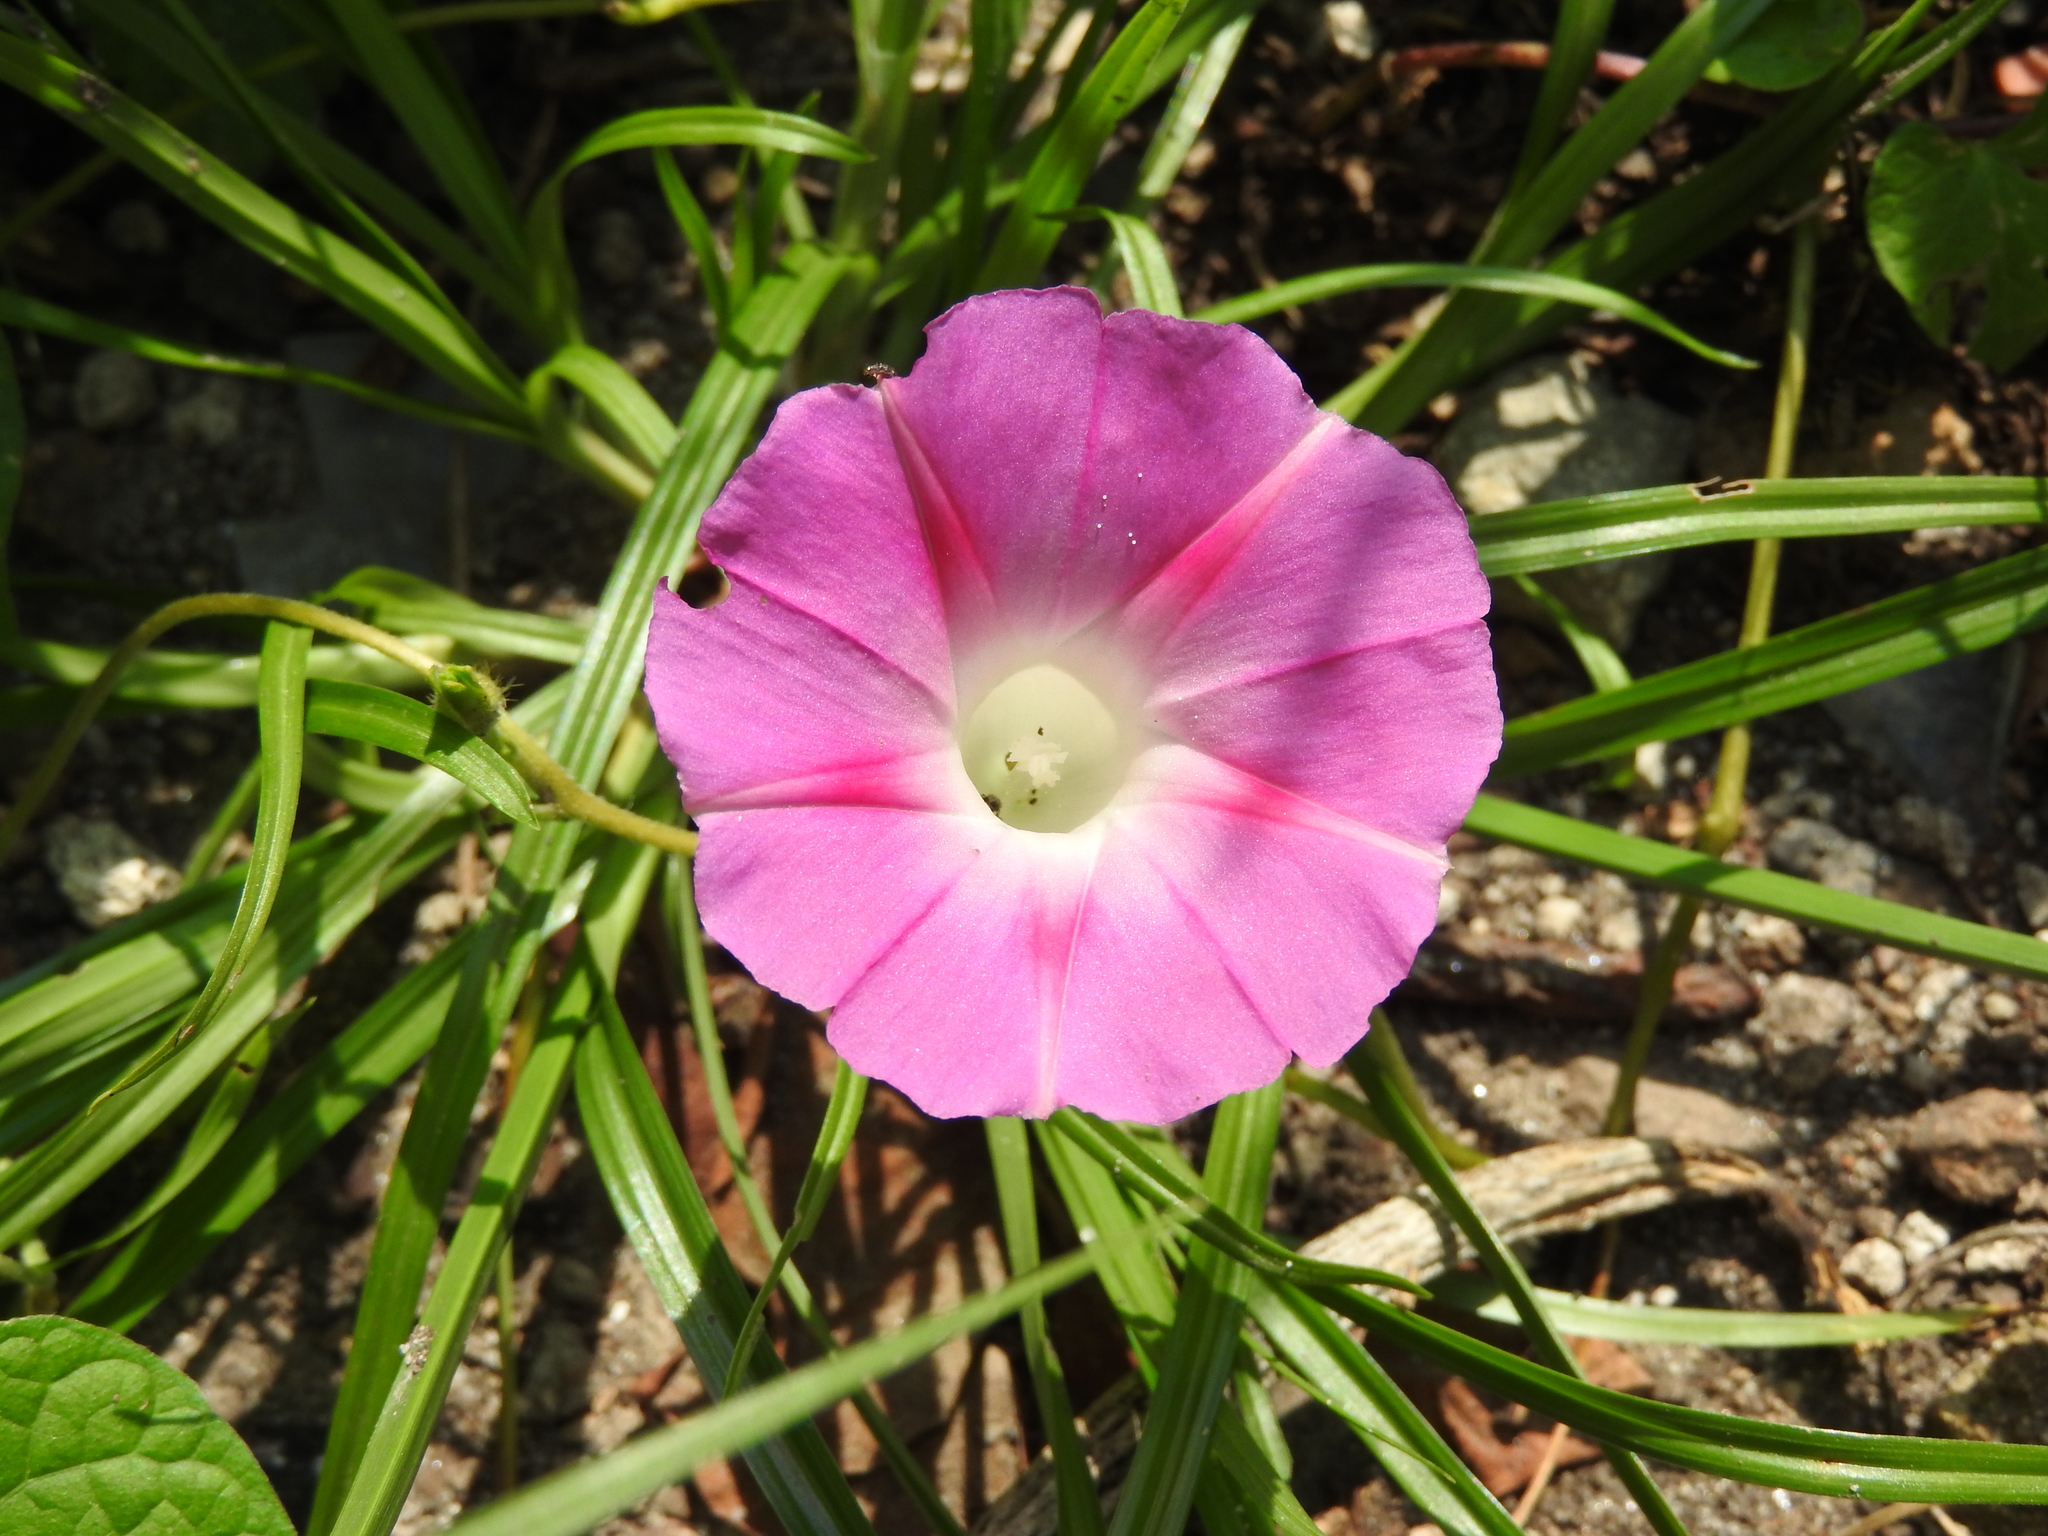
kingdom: Plantae
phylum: Tracheophyta
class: Magnoliopsida
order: Solanales
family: Convolvulaceae
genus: Ipomoea
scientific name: Ipomoea purpurea
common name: Common morning-glory
